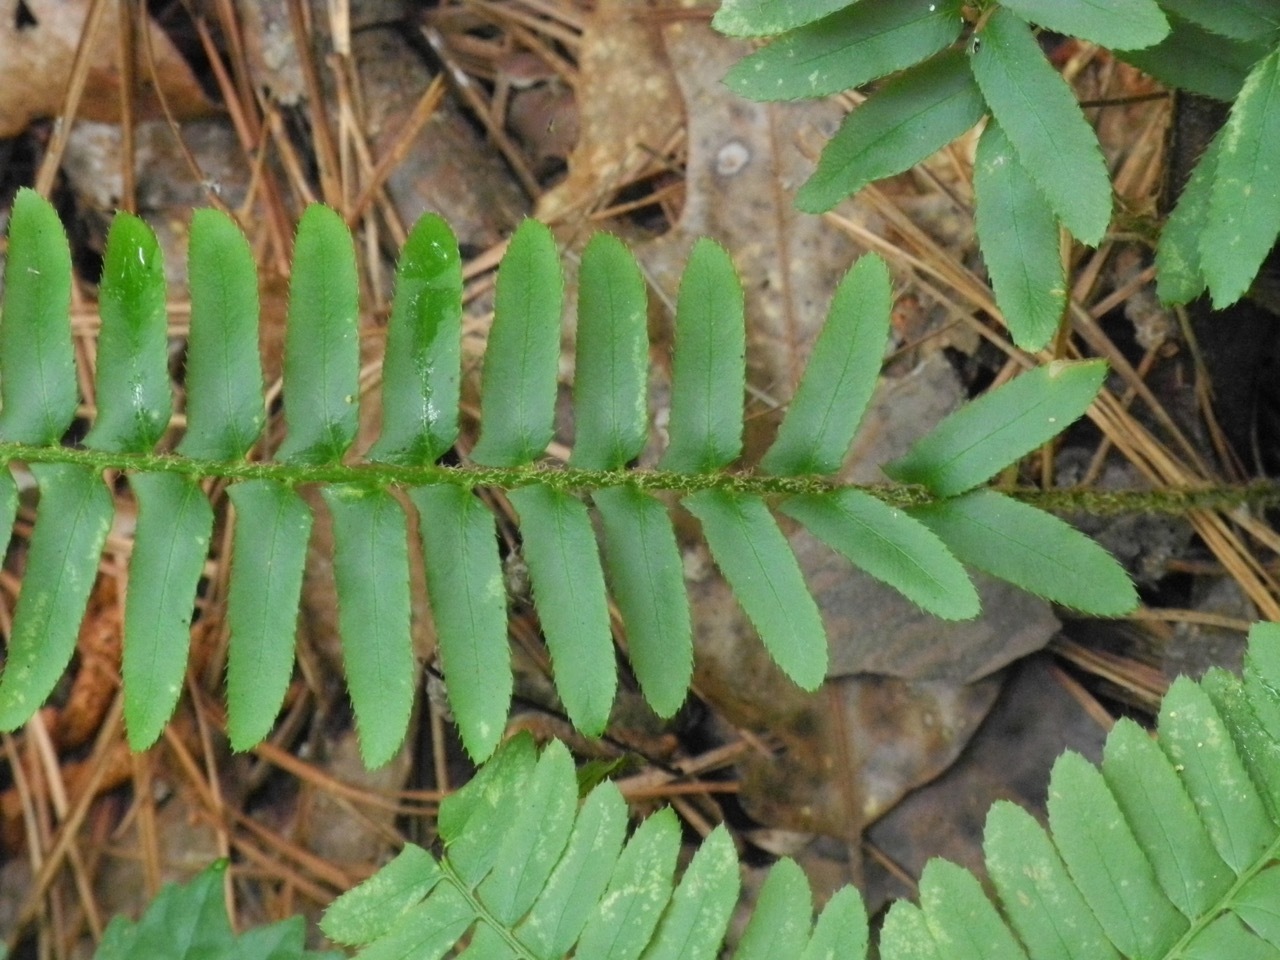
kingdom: Plantae
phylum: Tracheophyta
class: Polypodiopsida
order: Polypodiales
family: Dryopteridaceae
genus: Polystichum
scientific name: Polystichum acrostichoides
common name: Christmas fern
